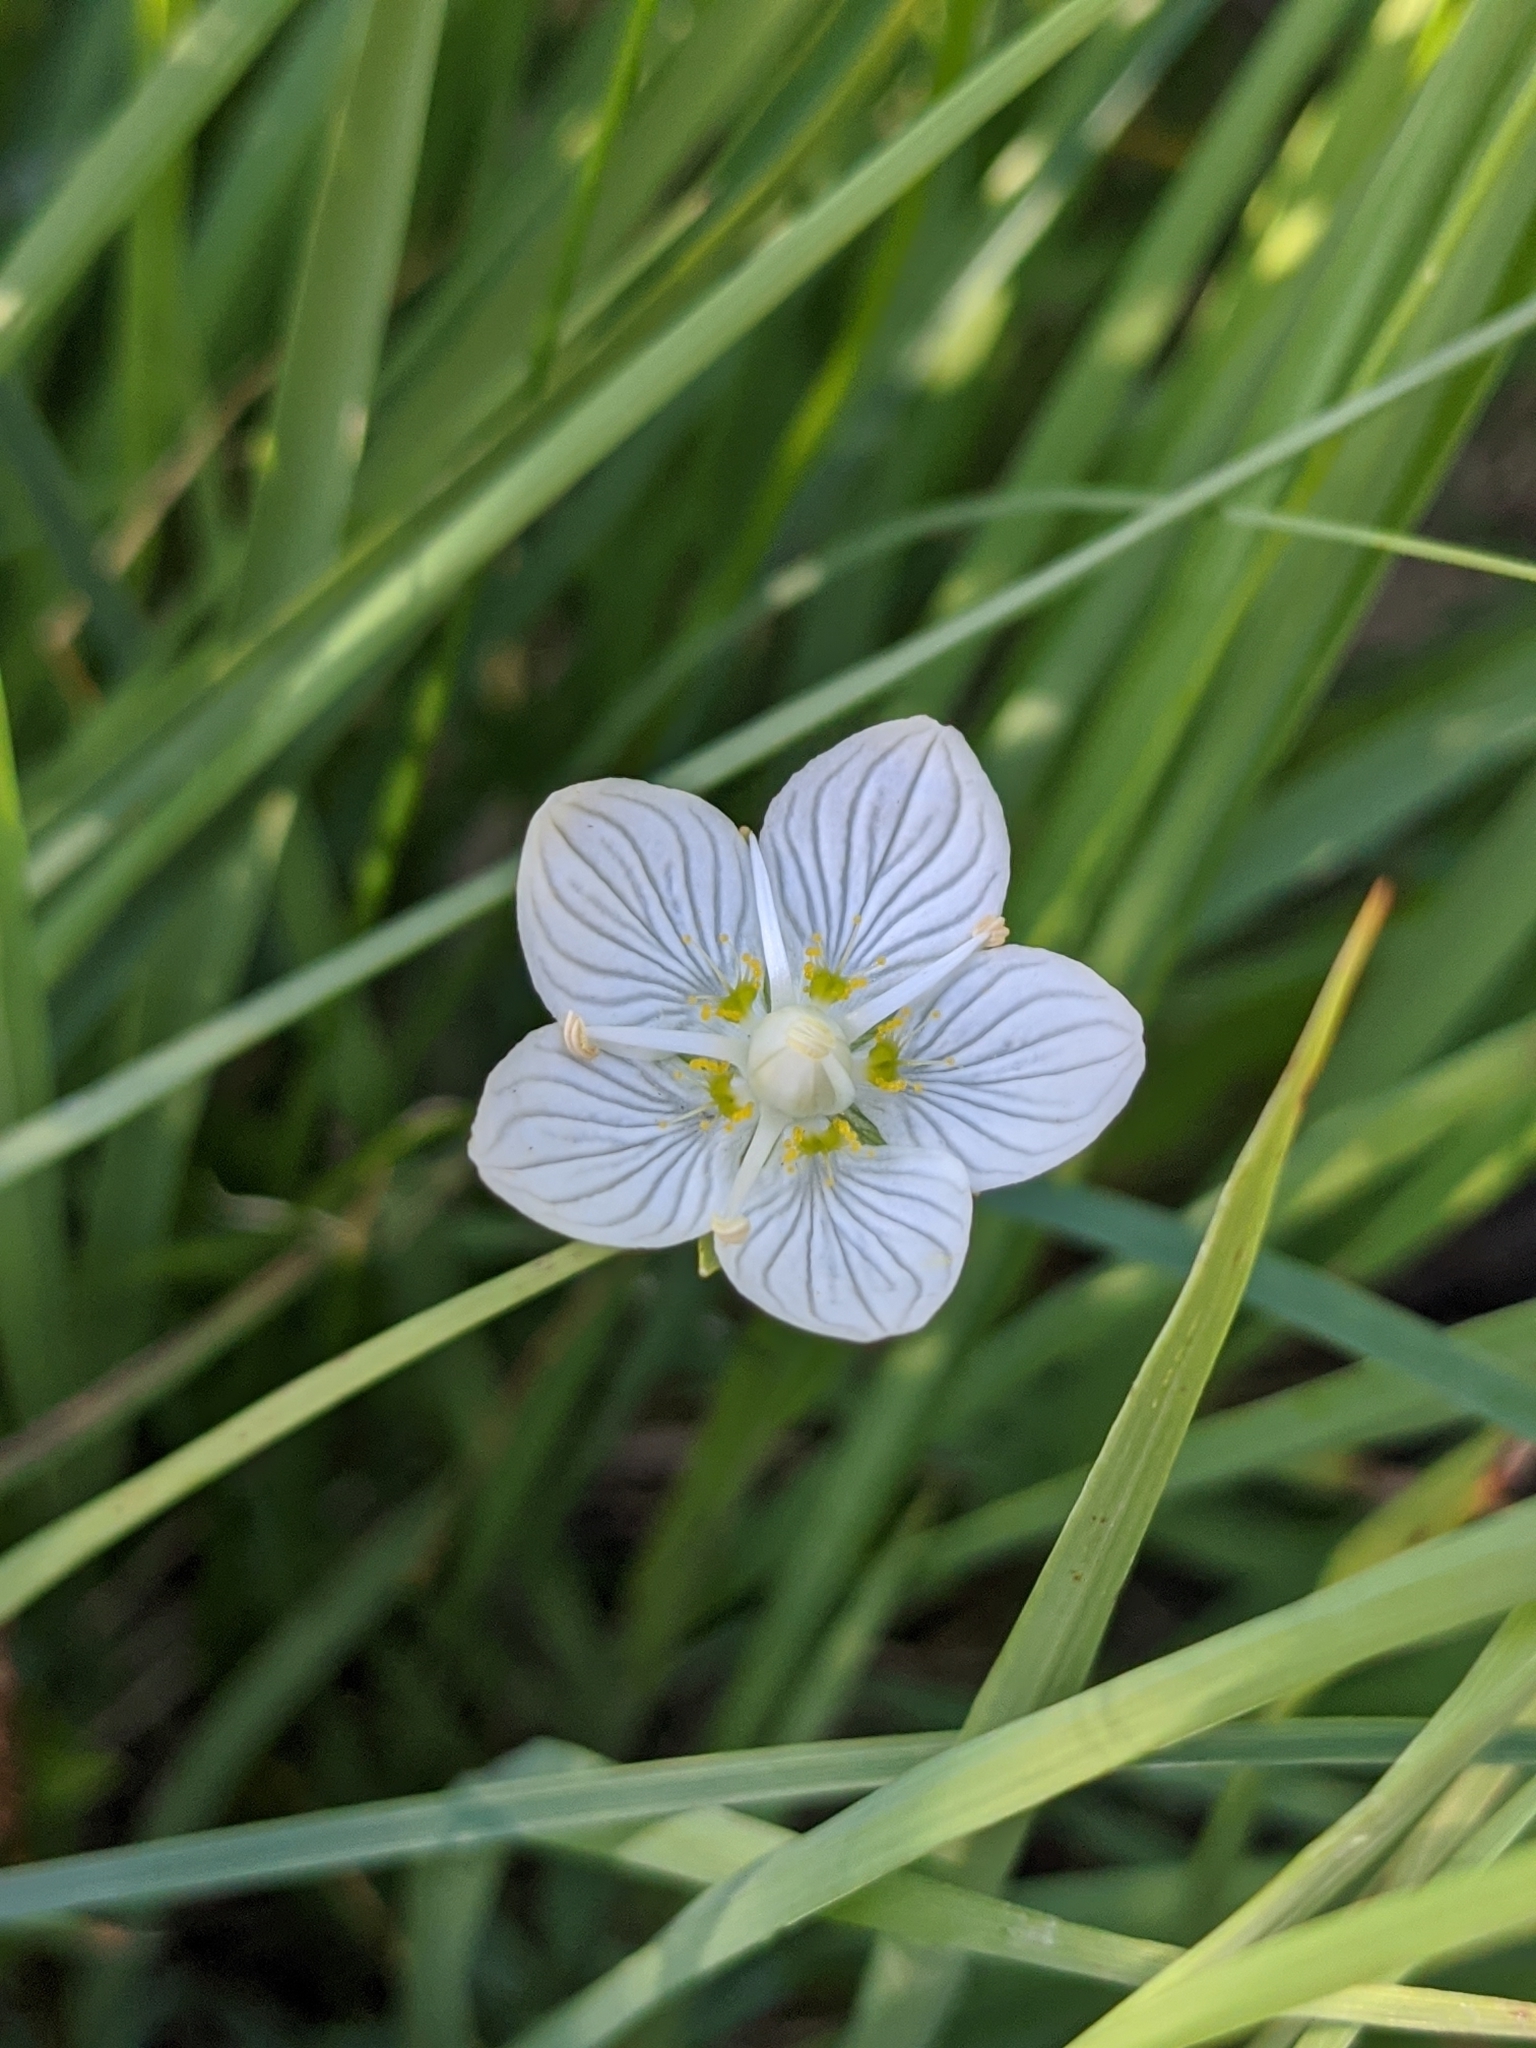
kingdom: Plantae
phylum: Tracheophyta
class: Magnoliopsida
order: Celastrales
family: Parnassiaceae
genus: Parnassia
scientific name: Parnassia palustris
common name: Grass-of-parnassus
